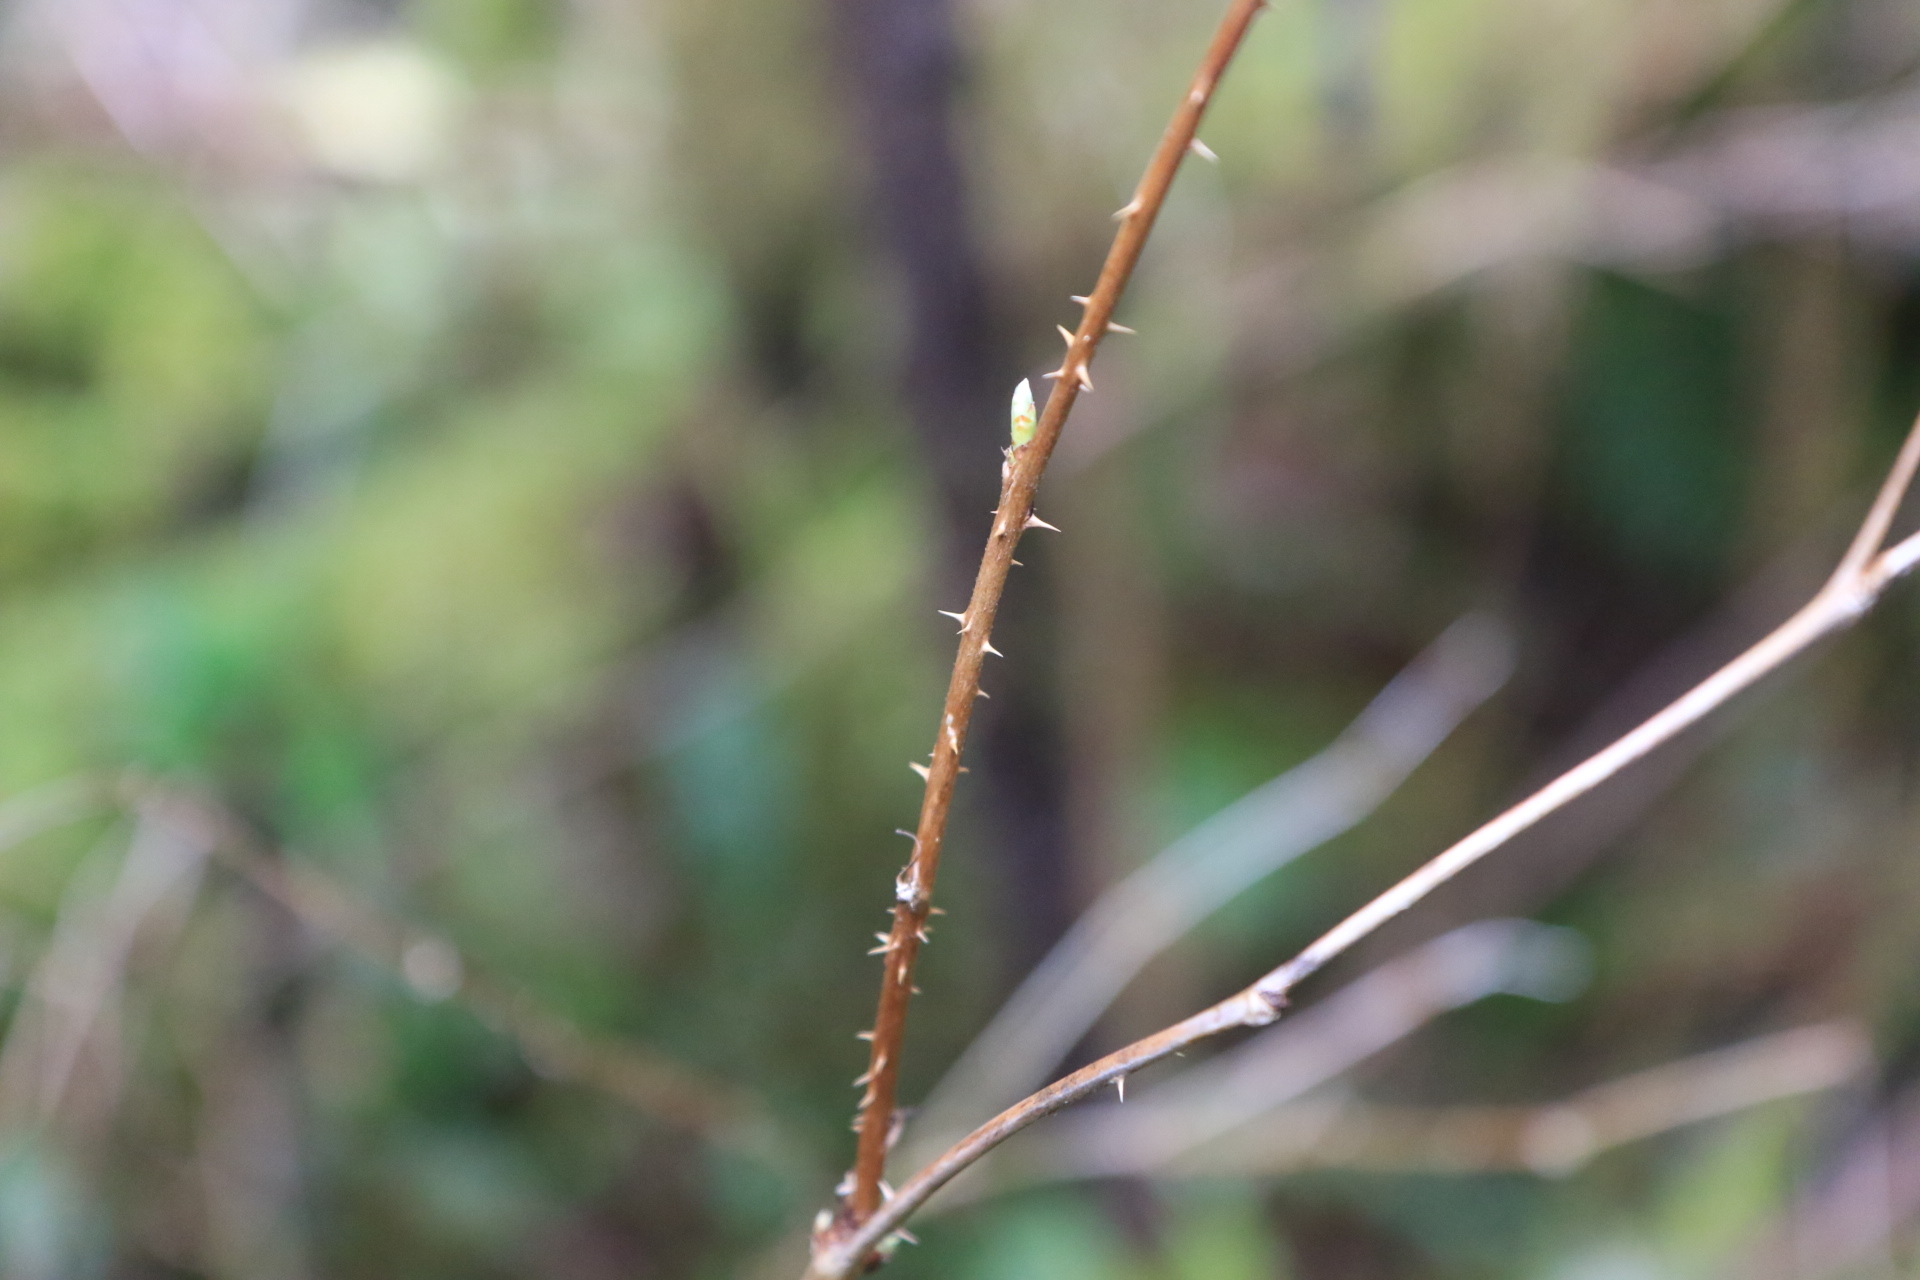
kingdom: Plantae
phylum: Tracheophyta
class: Magnoliopsida
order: Rosales
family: Rosaceae
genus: Rubus
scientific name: Rubus spectabilis
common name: Salmonberry
